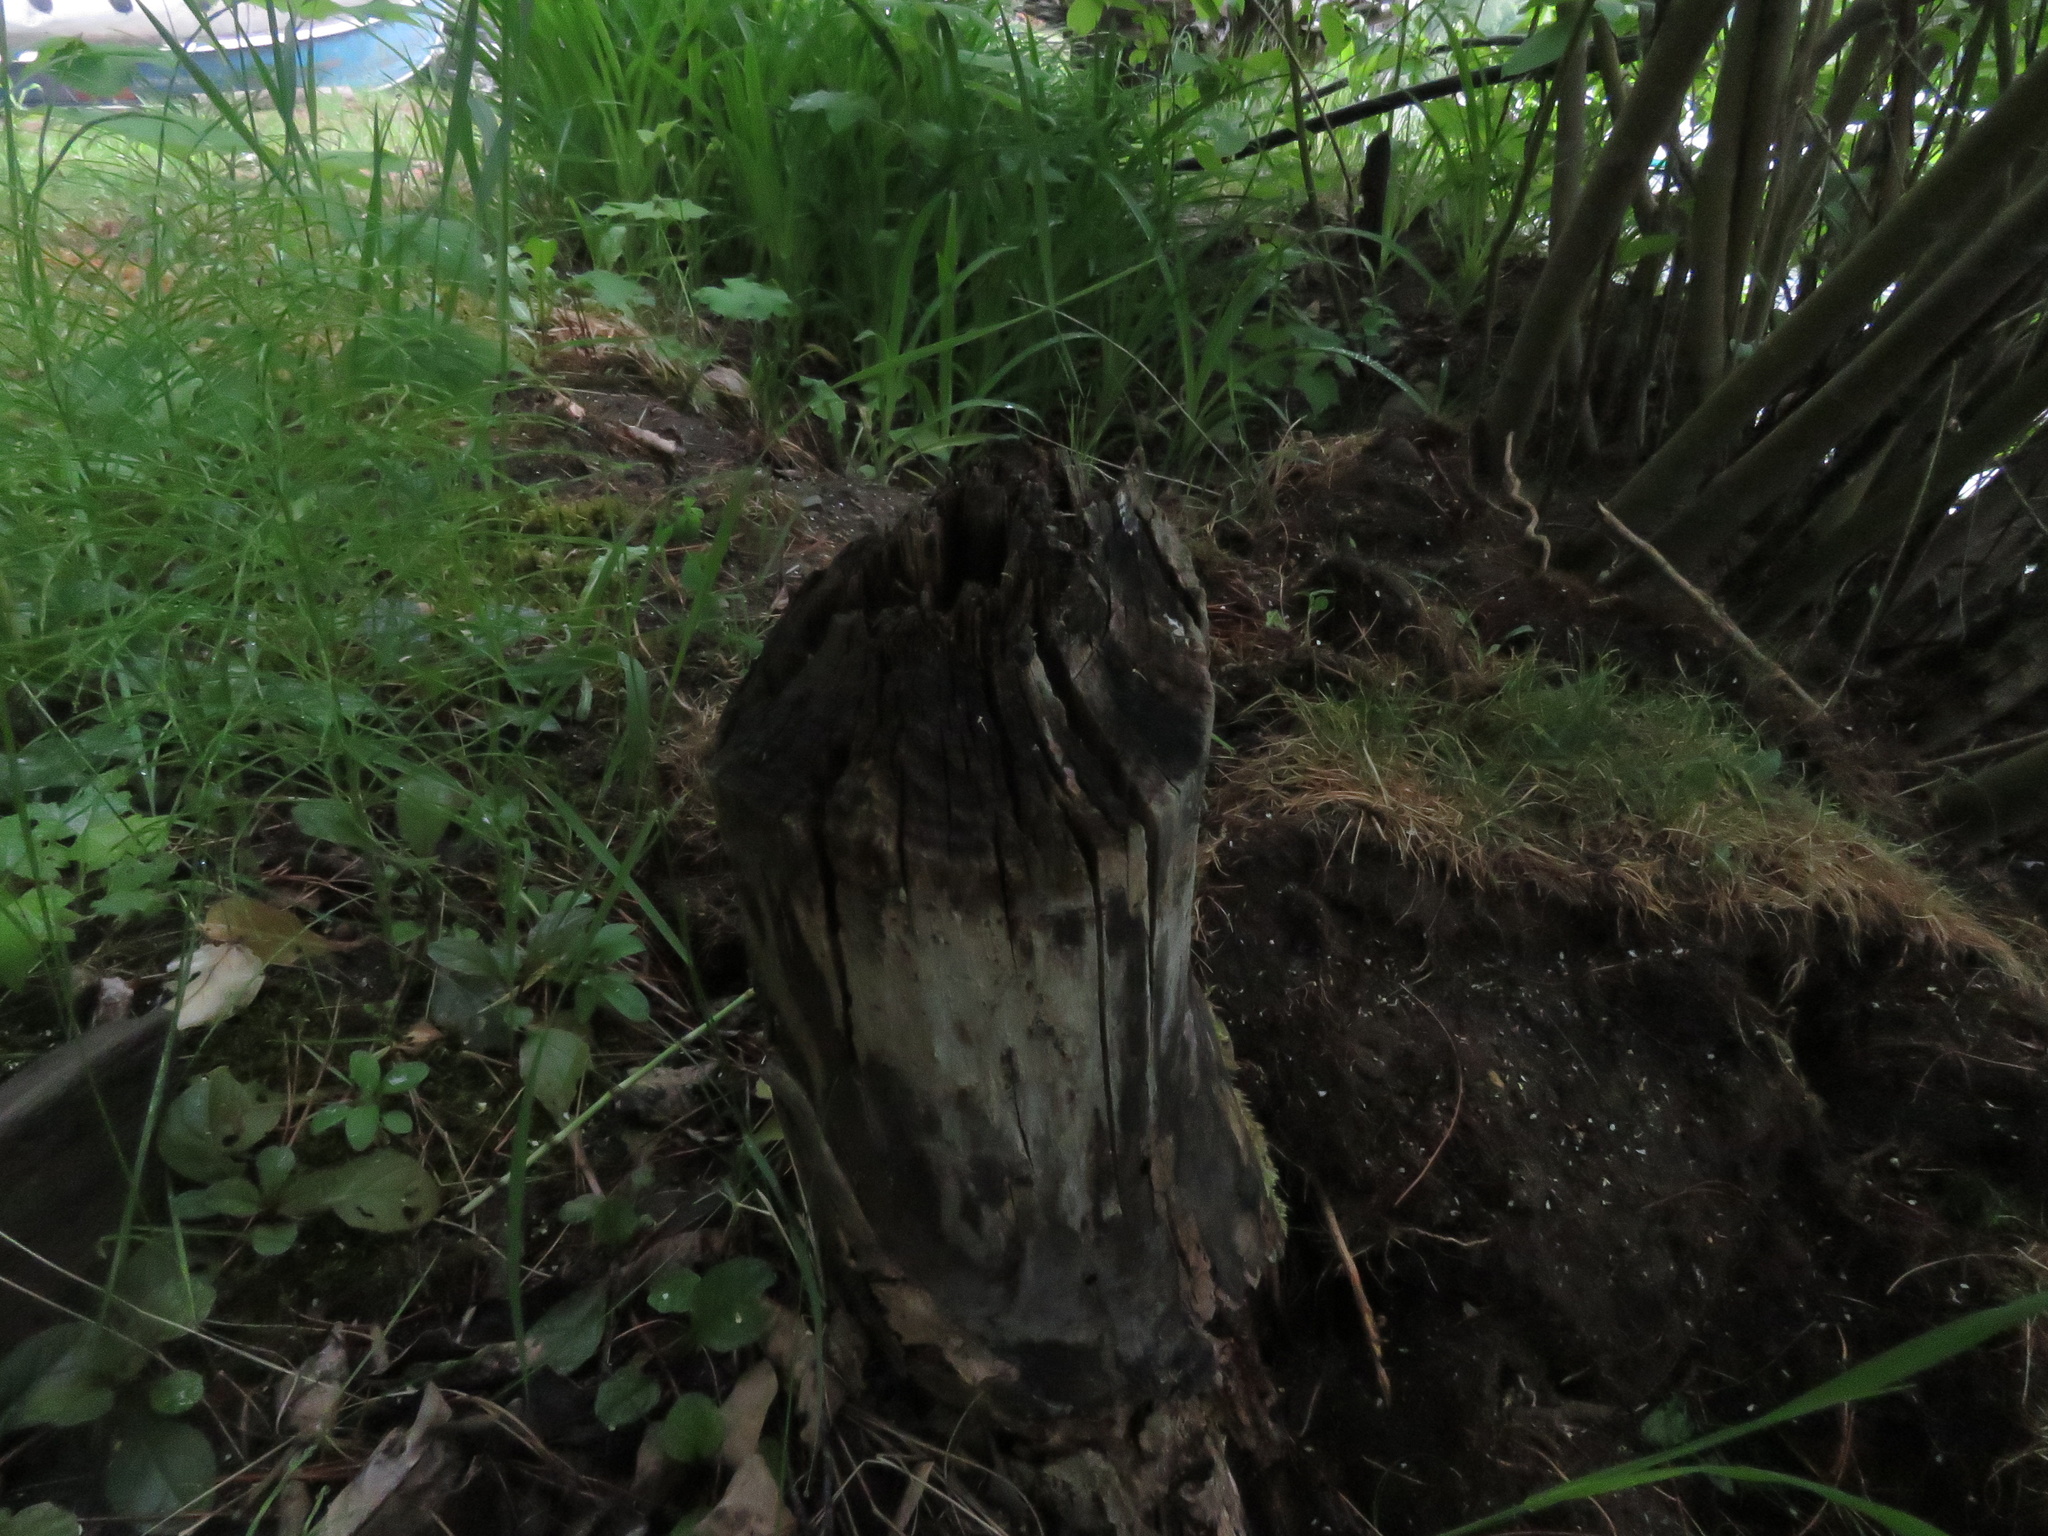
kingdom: Animalia
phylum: Chordata
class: Mammalia
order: Rodentia
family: Castoridae
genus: Castor
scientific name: Castor canadensis
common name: American beaver
